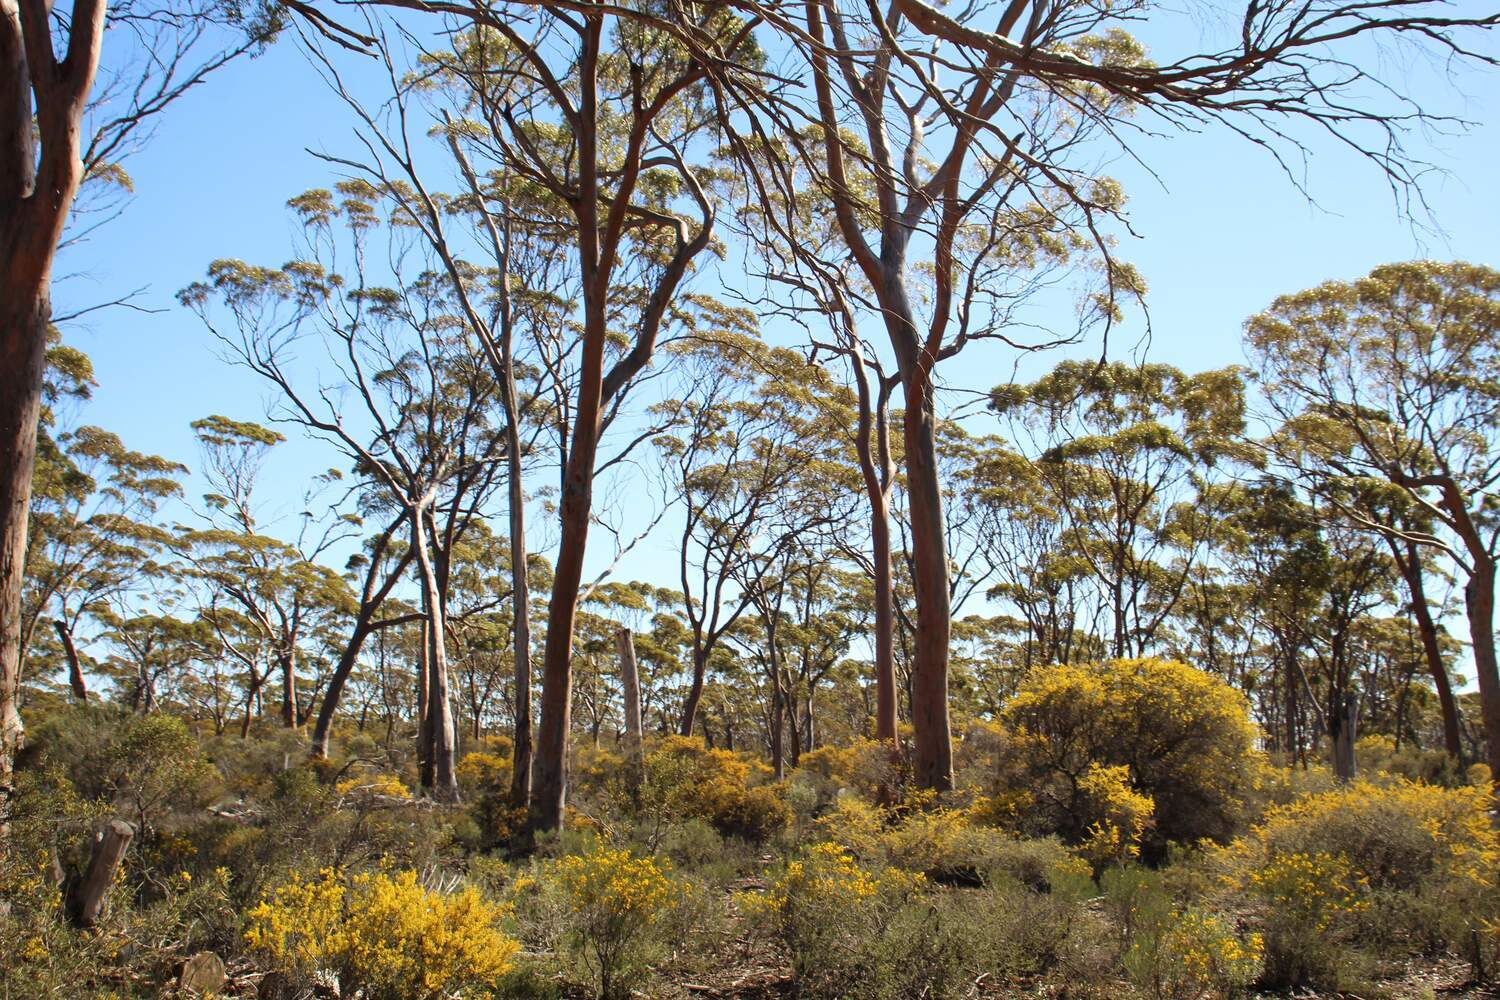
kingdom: Plantae
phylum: Tracheophyta
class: Magnoliopsida
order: Myrtales
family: Myrtaceae
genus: Eucalyptus
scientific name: Eucalyptus salmonophloia
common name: Salmon gum
